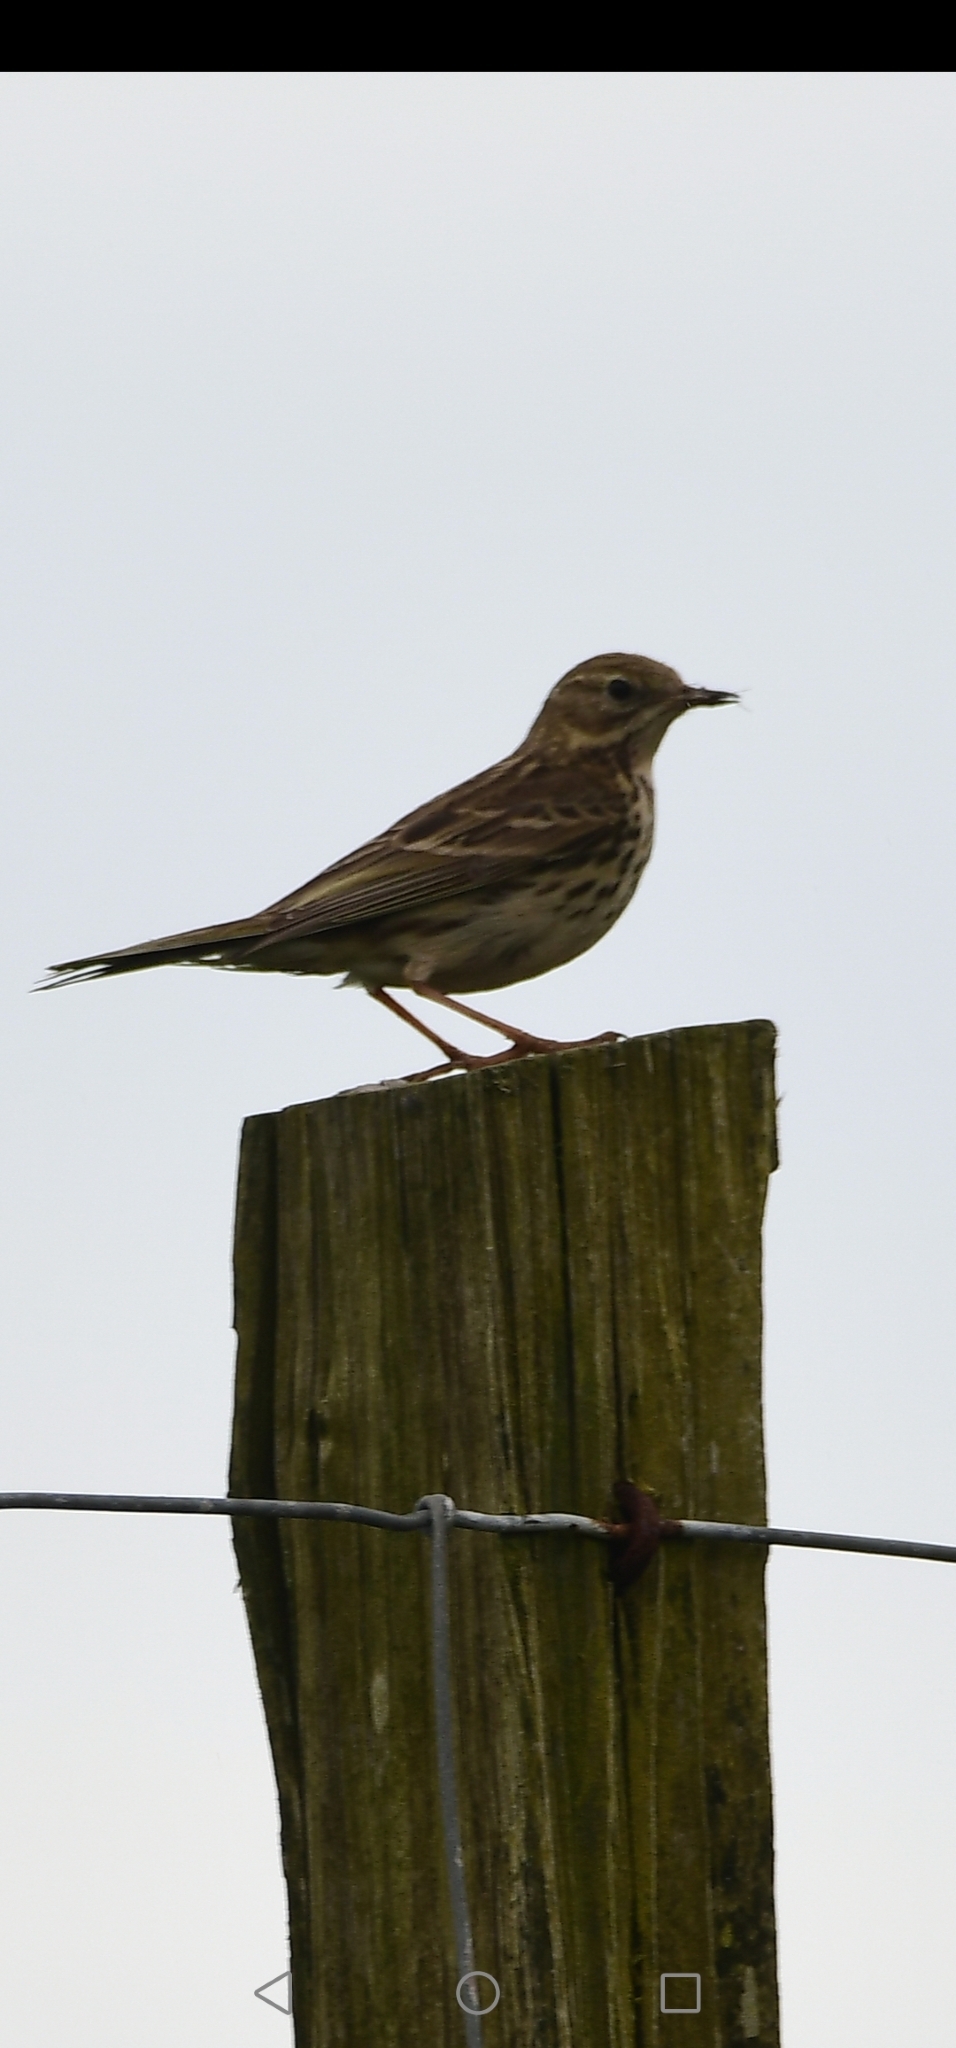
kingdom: Animalia
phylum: Chordata
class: Aves
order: Passeriformes
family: Motacillidae
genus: Anthus
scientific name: Anthus pratensis
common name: Meadow pipit
